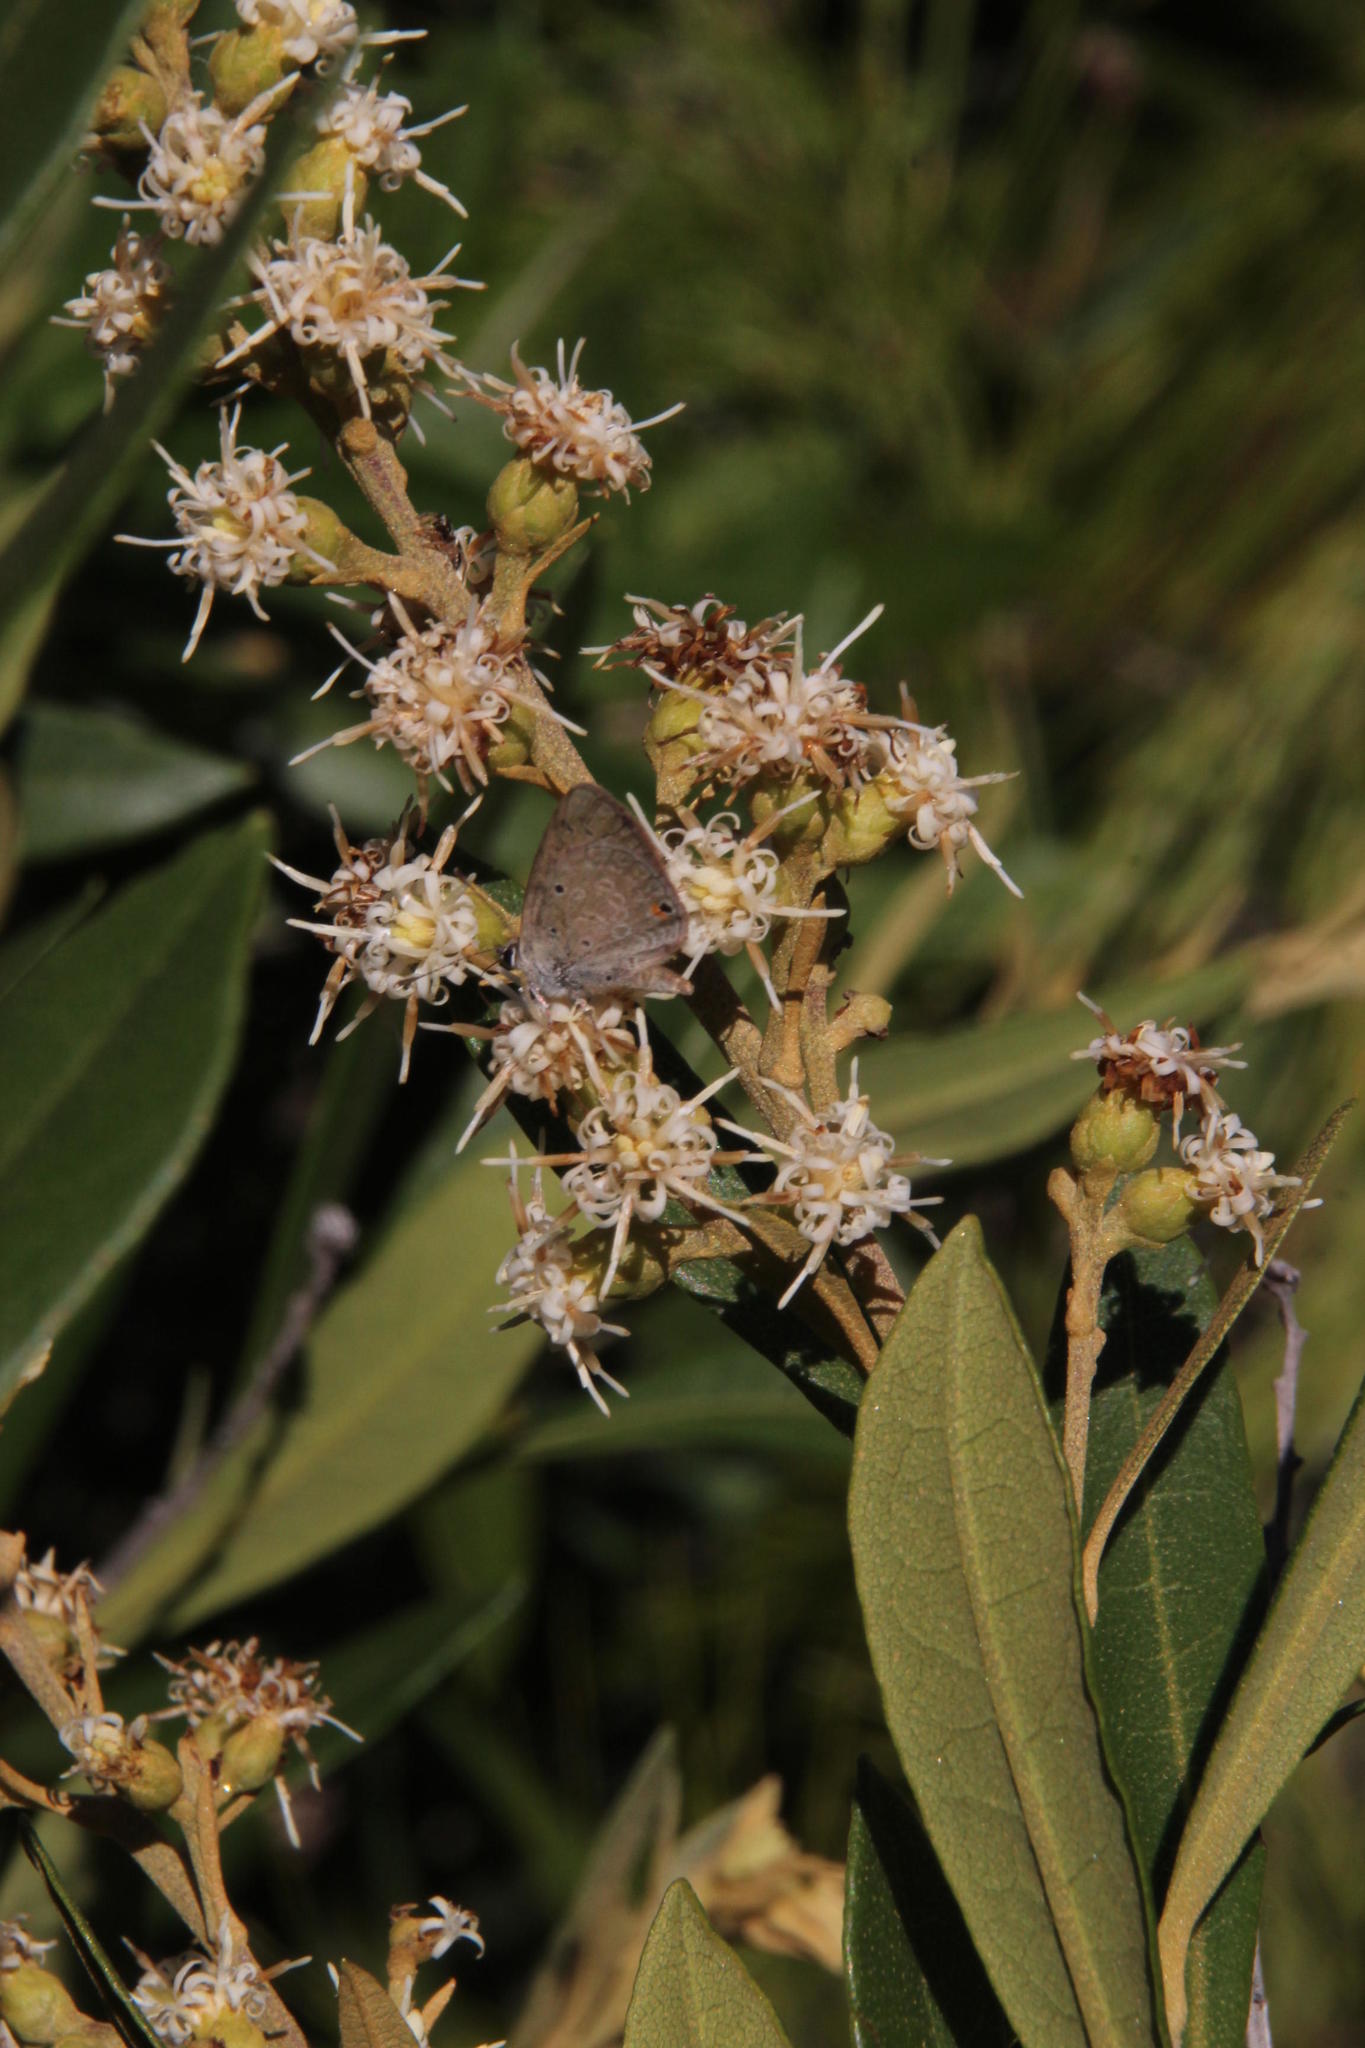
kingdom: Plantae
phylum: Tracheophyta
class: Magnoliopsida
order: Asterales
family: Asteraceae
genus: Brachylaena
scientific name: Brachylaena neriifolia
